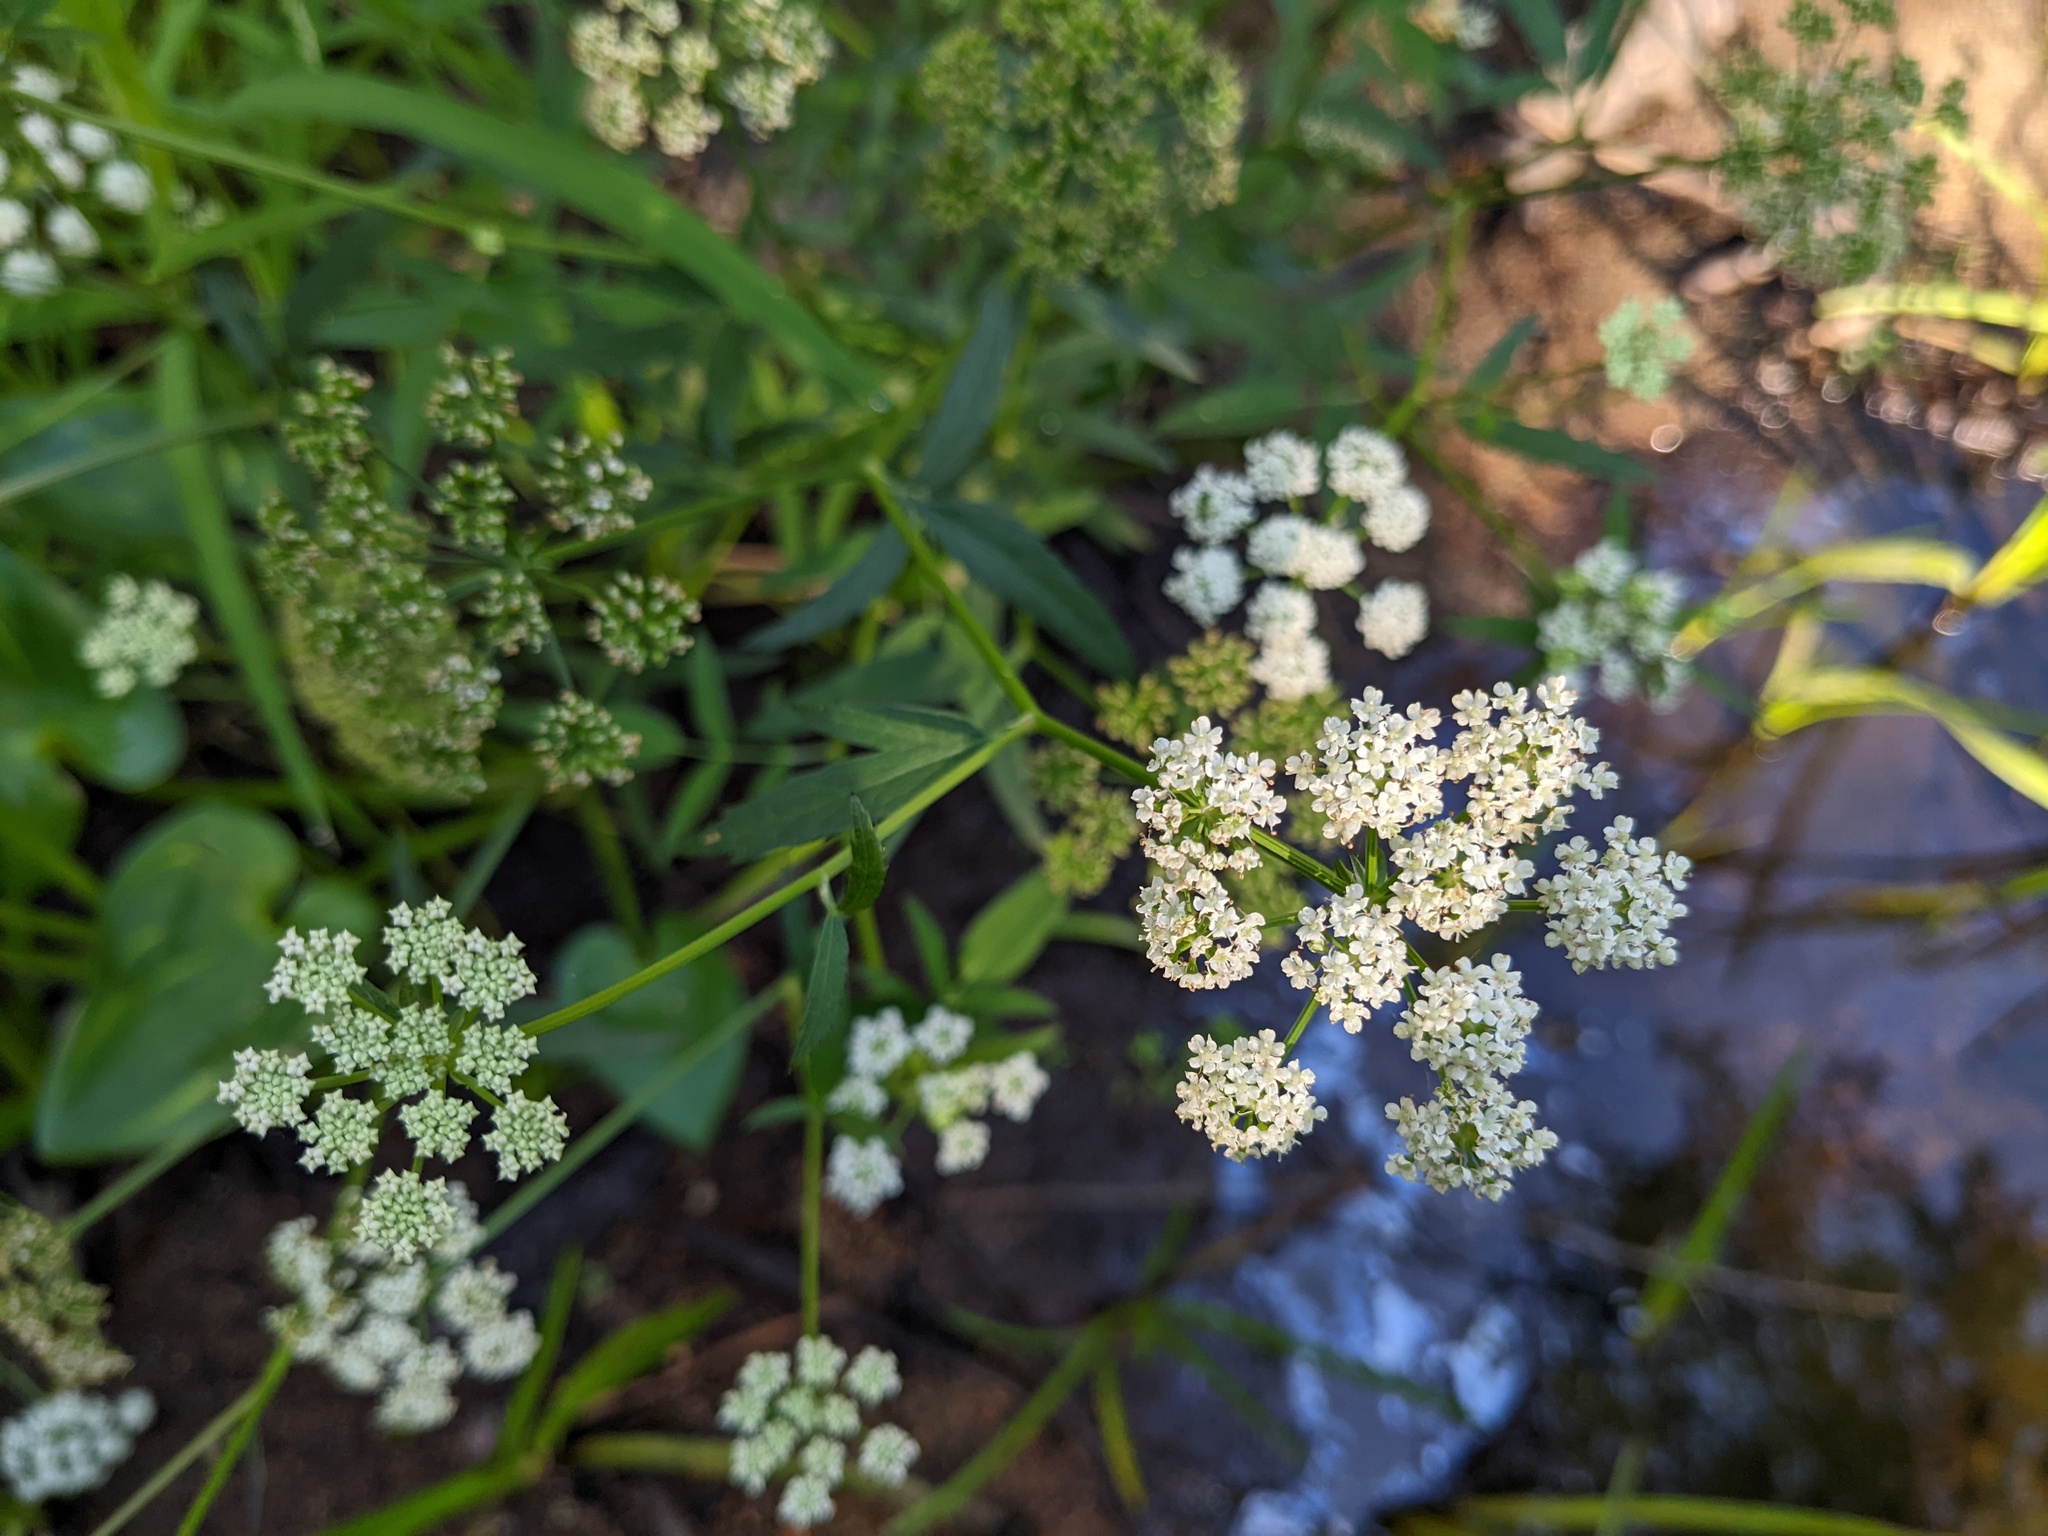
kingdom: Plantae
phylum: Tracheophyta
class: Magnoliopsida
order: Apiales
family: Apiaceae
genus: Sium
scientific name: Sium suave
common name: Hemlock water-parsnip
